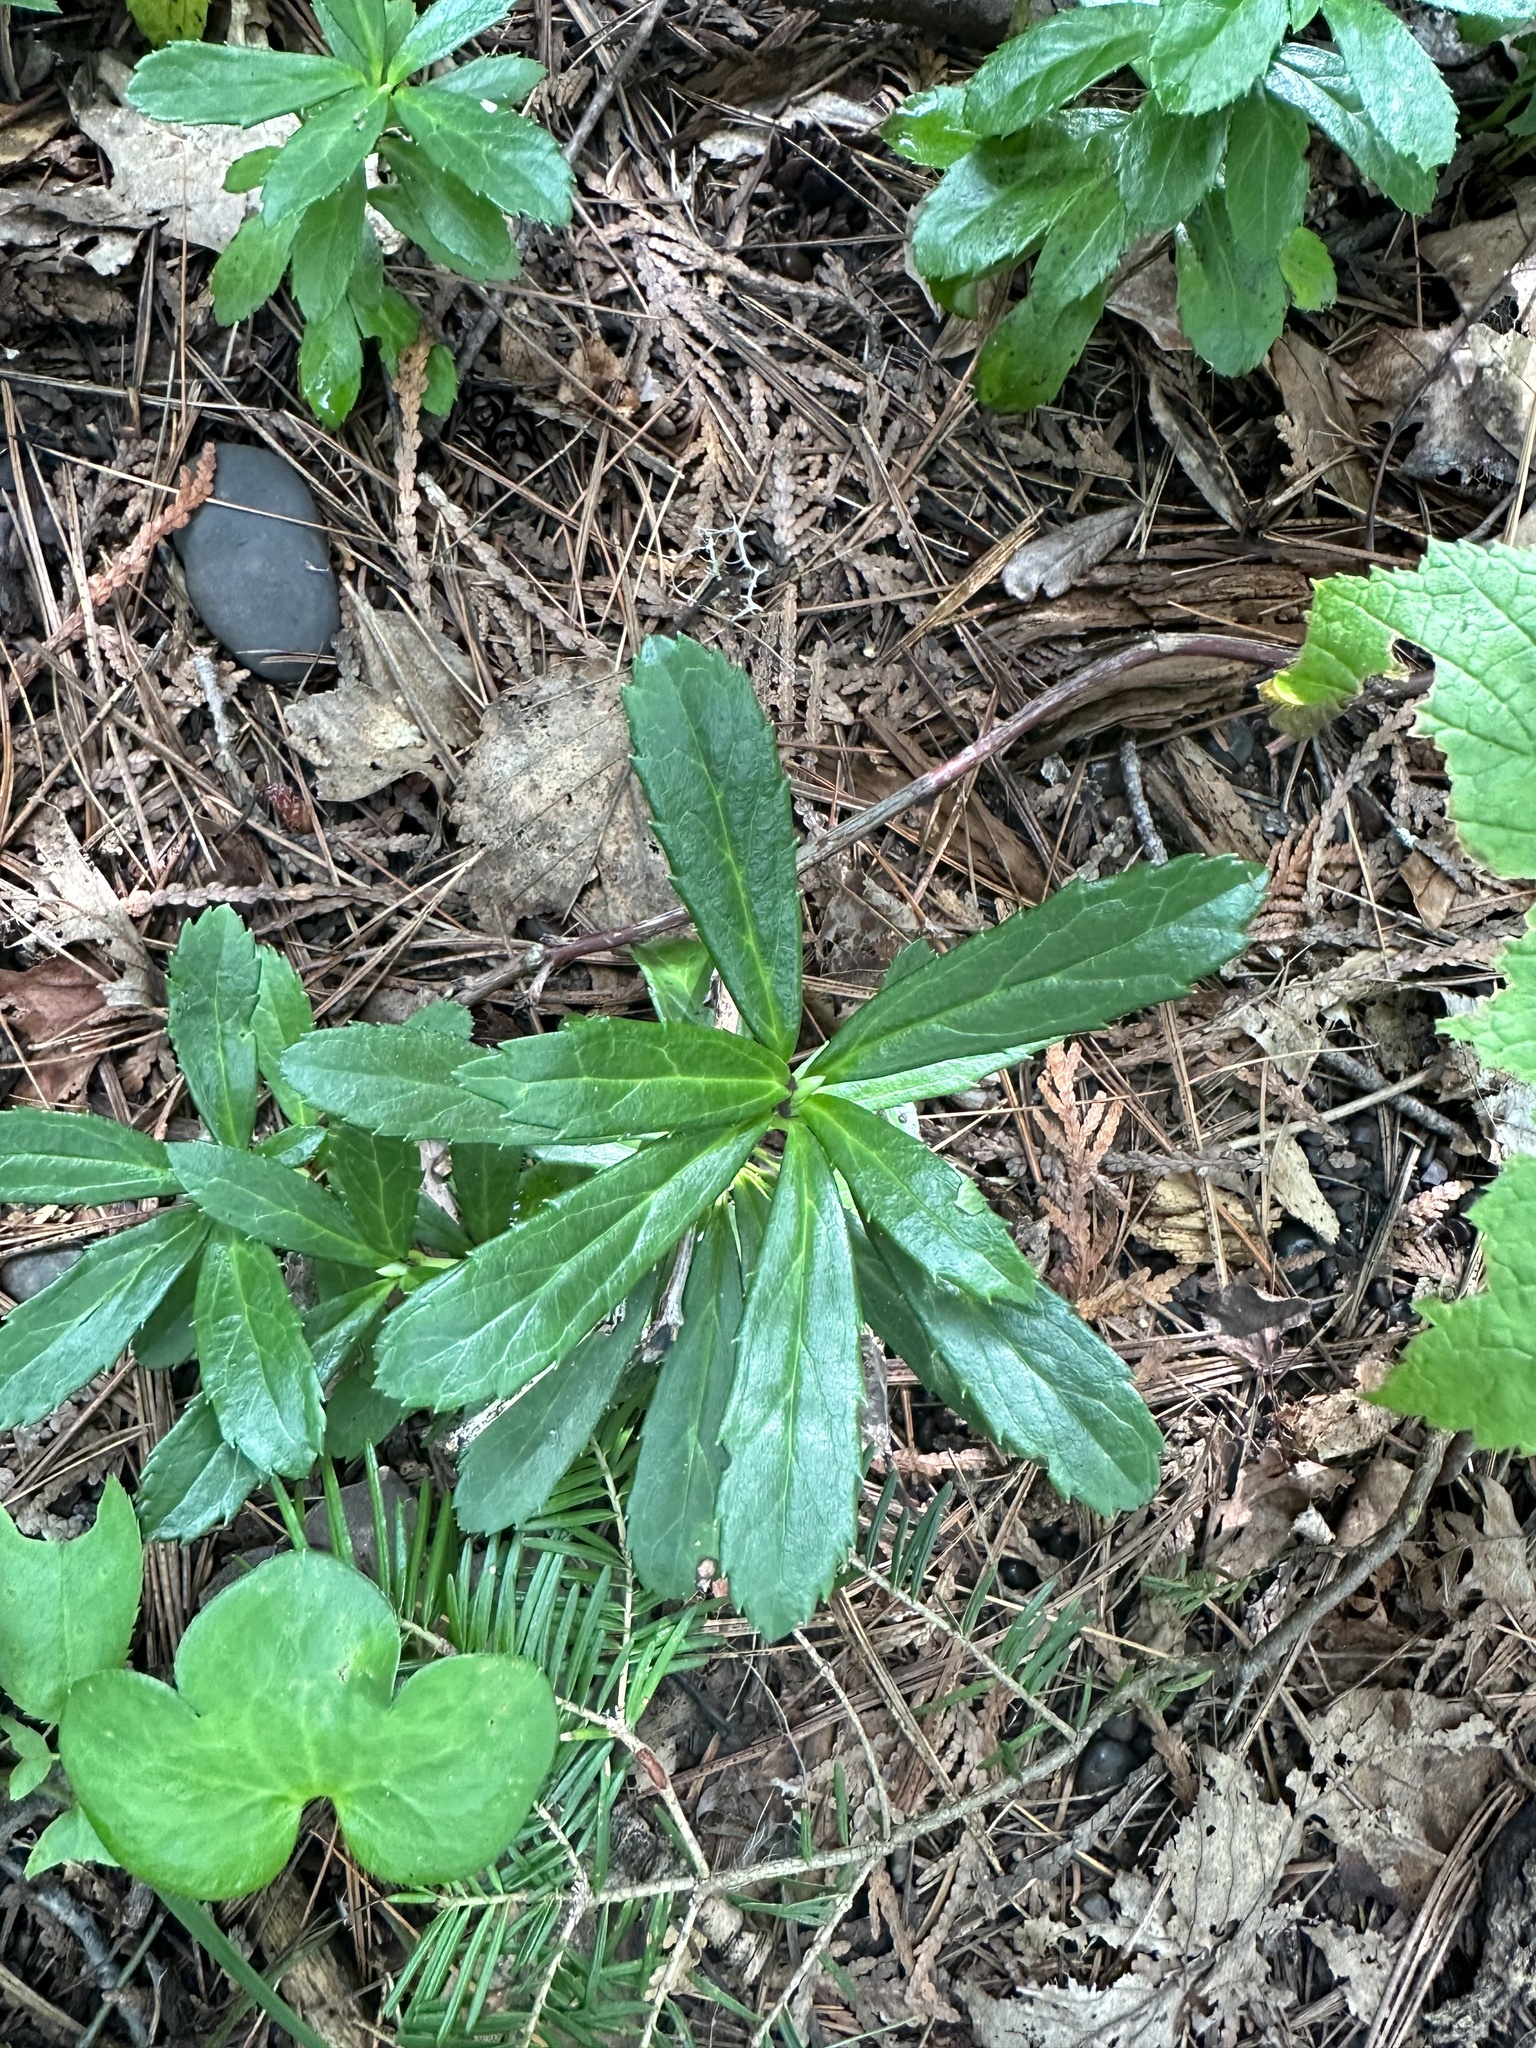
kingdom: Plantae
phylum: Tracheophyta
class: Magnoliopsida
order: Ericales
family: Ericaceae
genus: Chimaphila
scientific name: Chimaphila umbellata
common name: Pipsissewa
